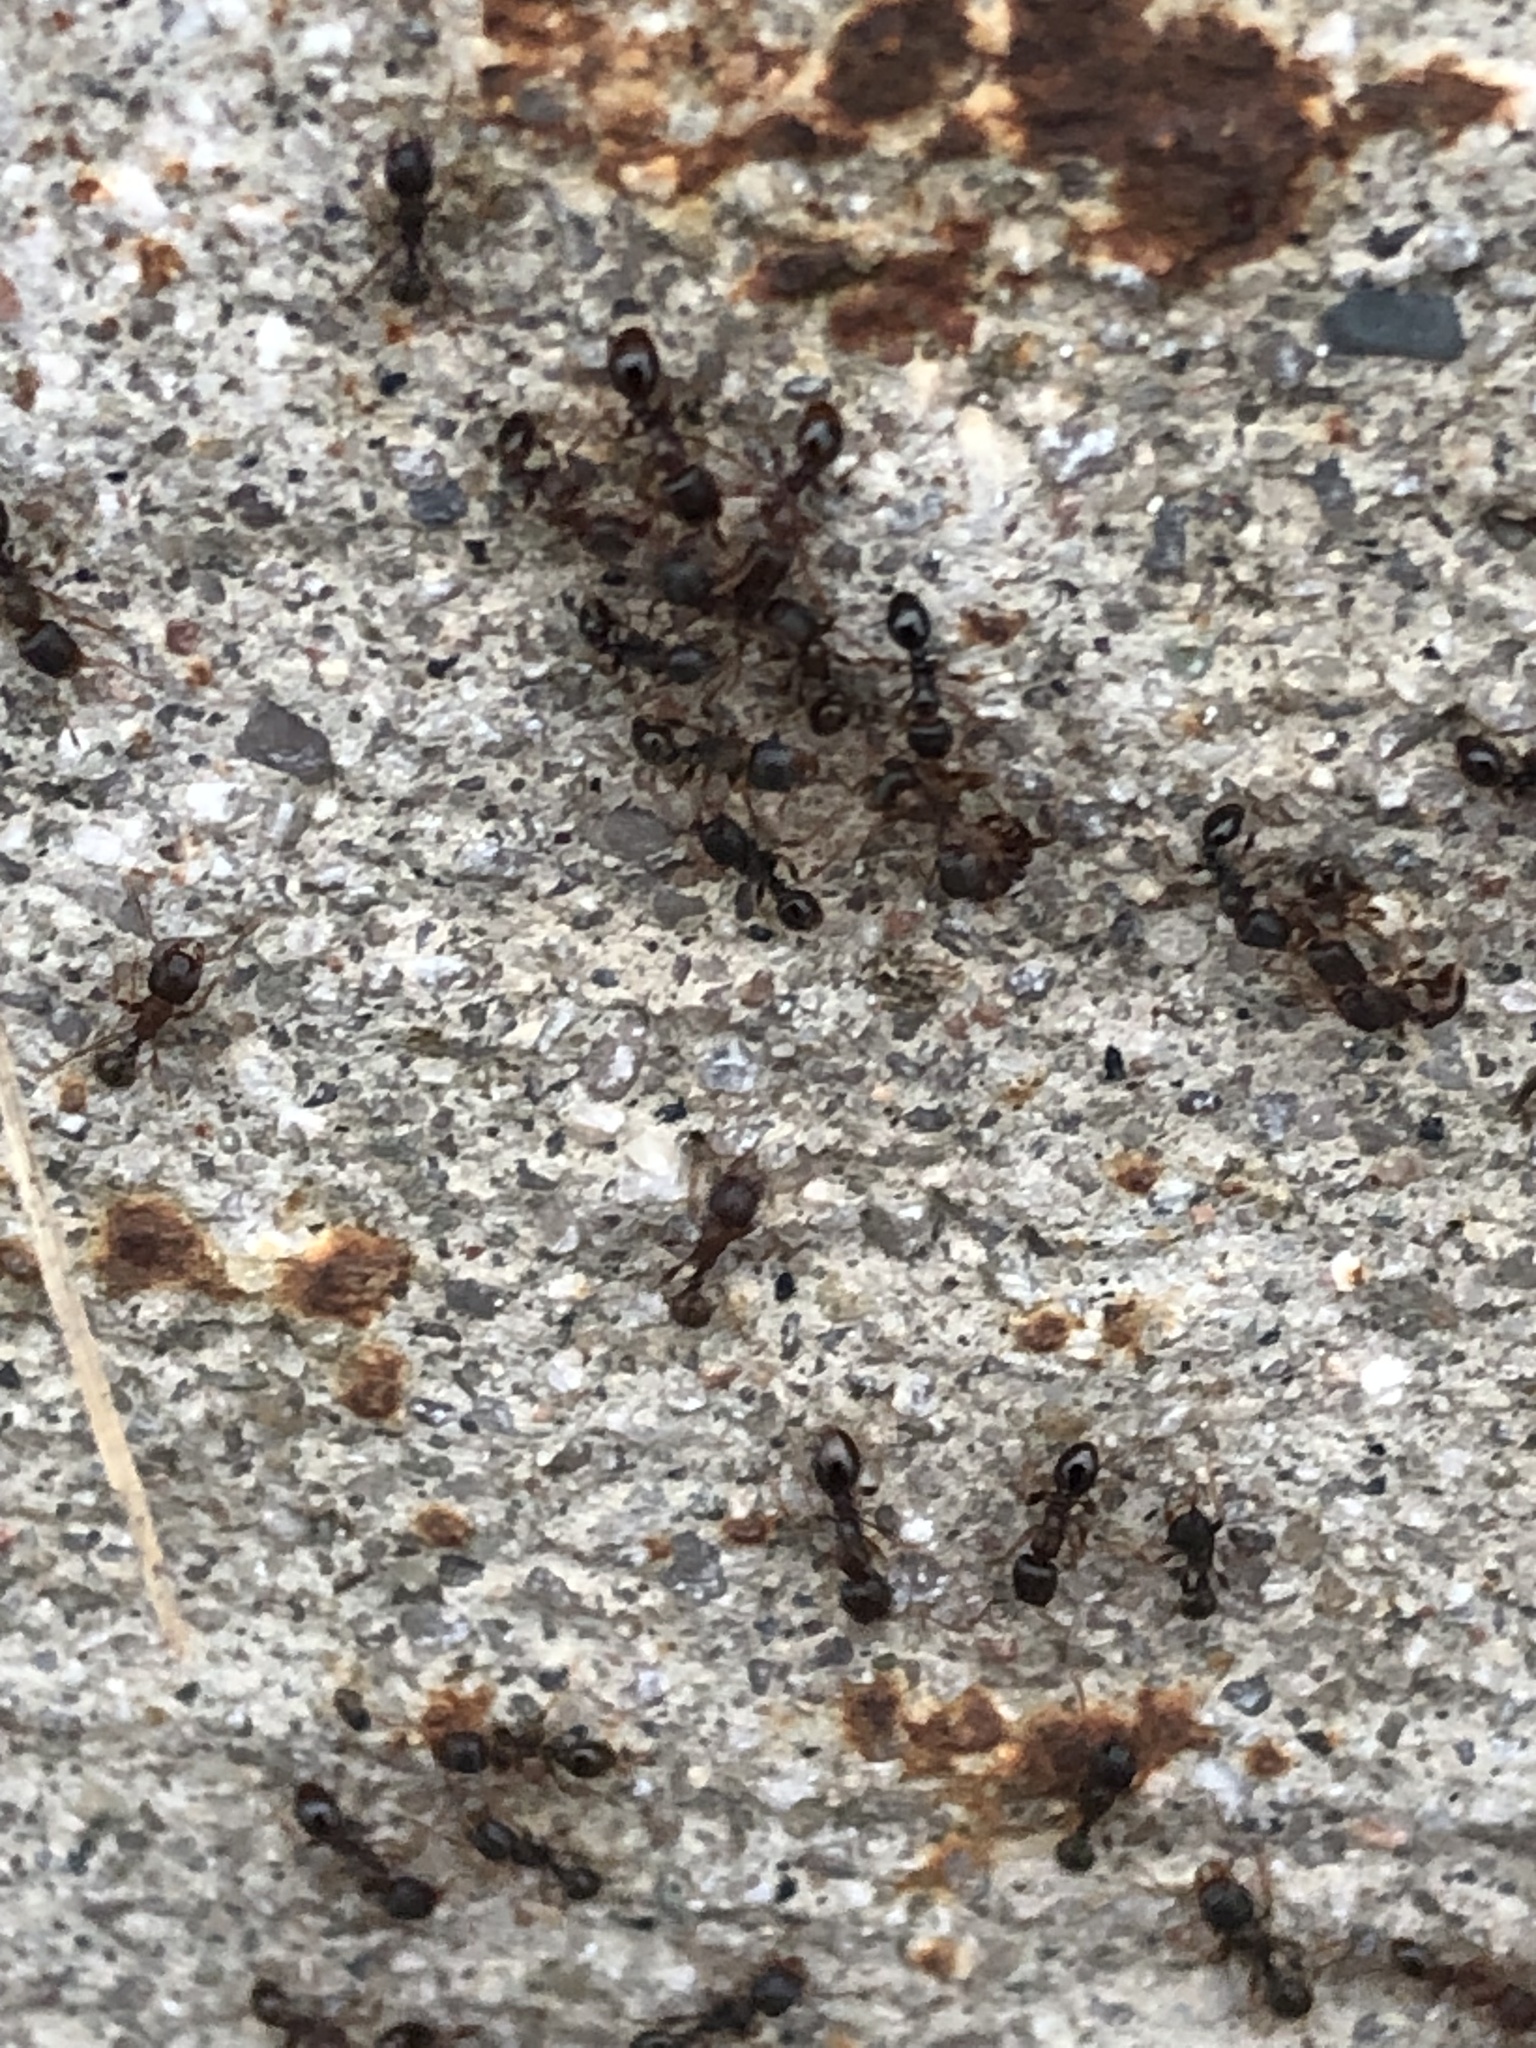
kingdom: Animalia
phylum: Arthropoda
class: Insecta
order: Hymenoptera
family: Formicidae
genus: Tetramorium
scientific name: Tetramorium immigrans
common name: Pavement ant
